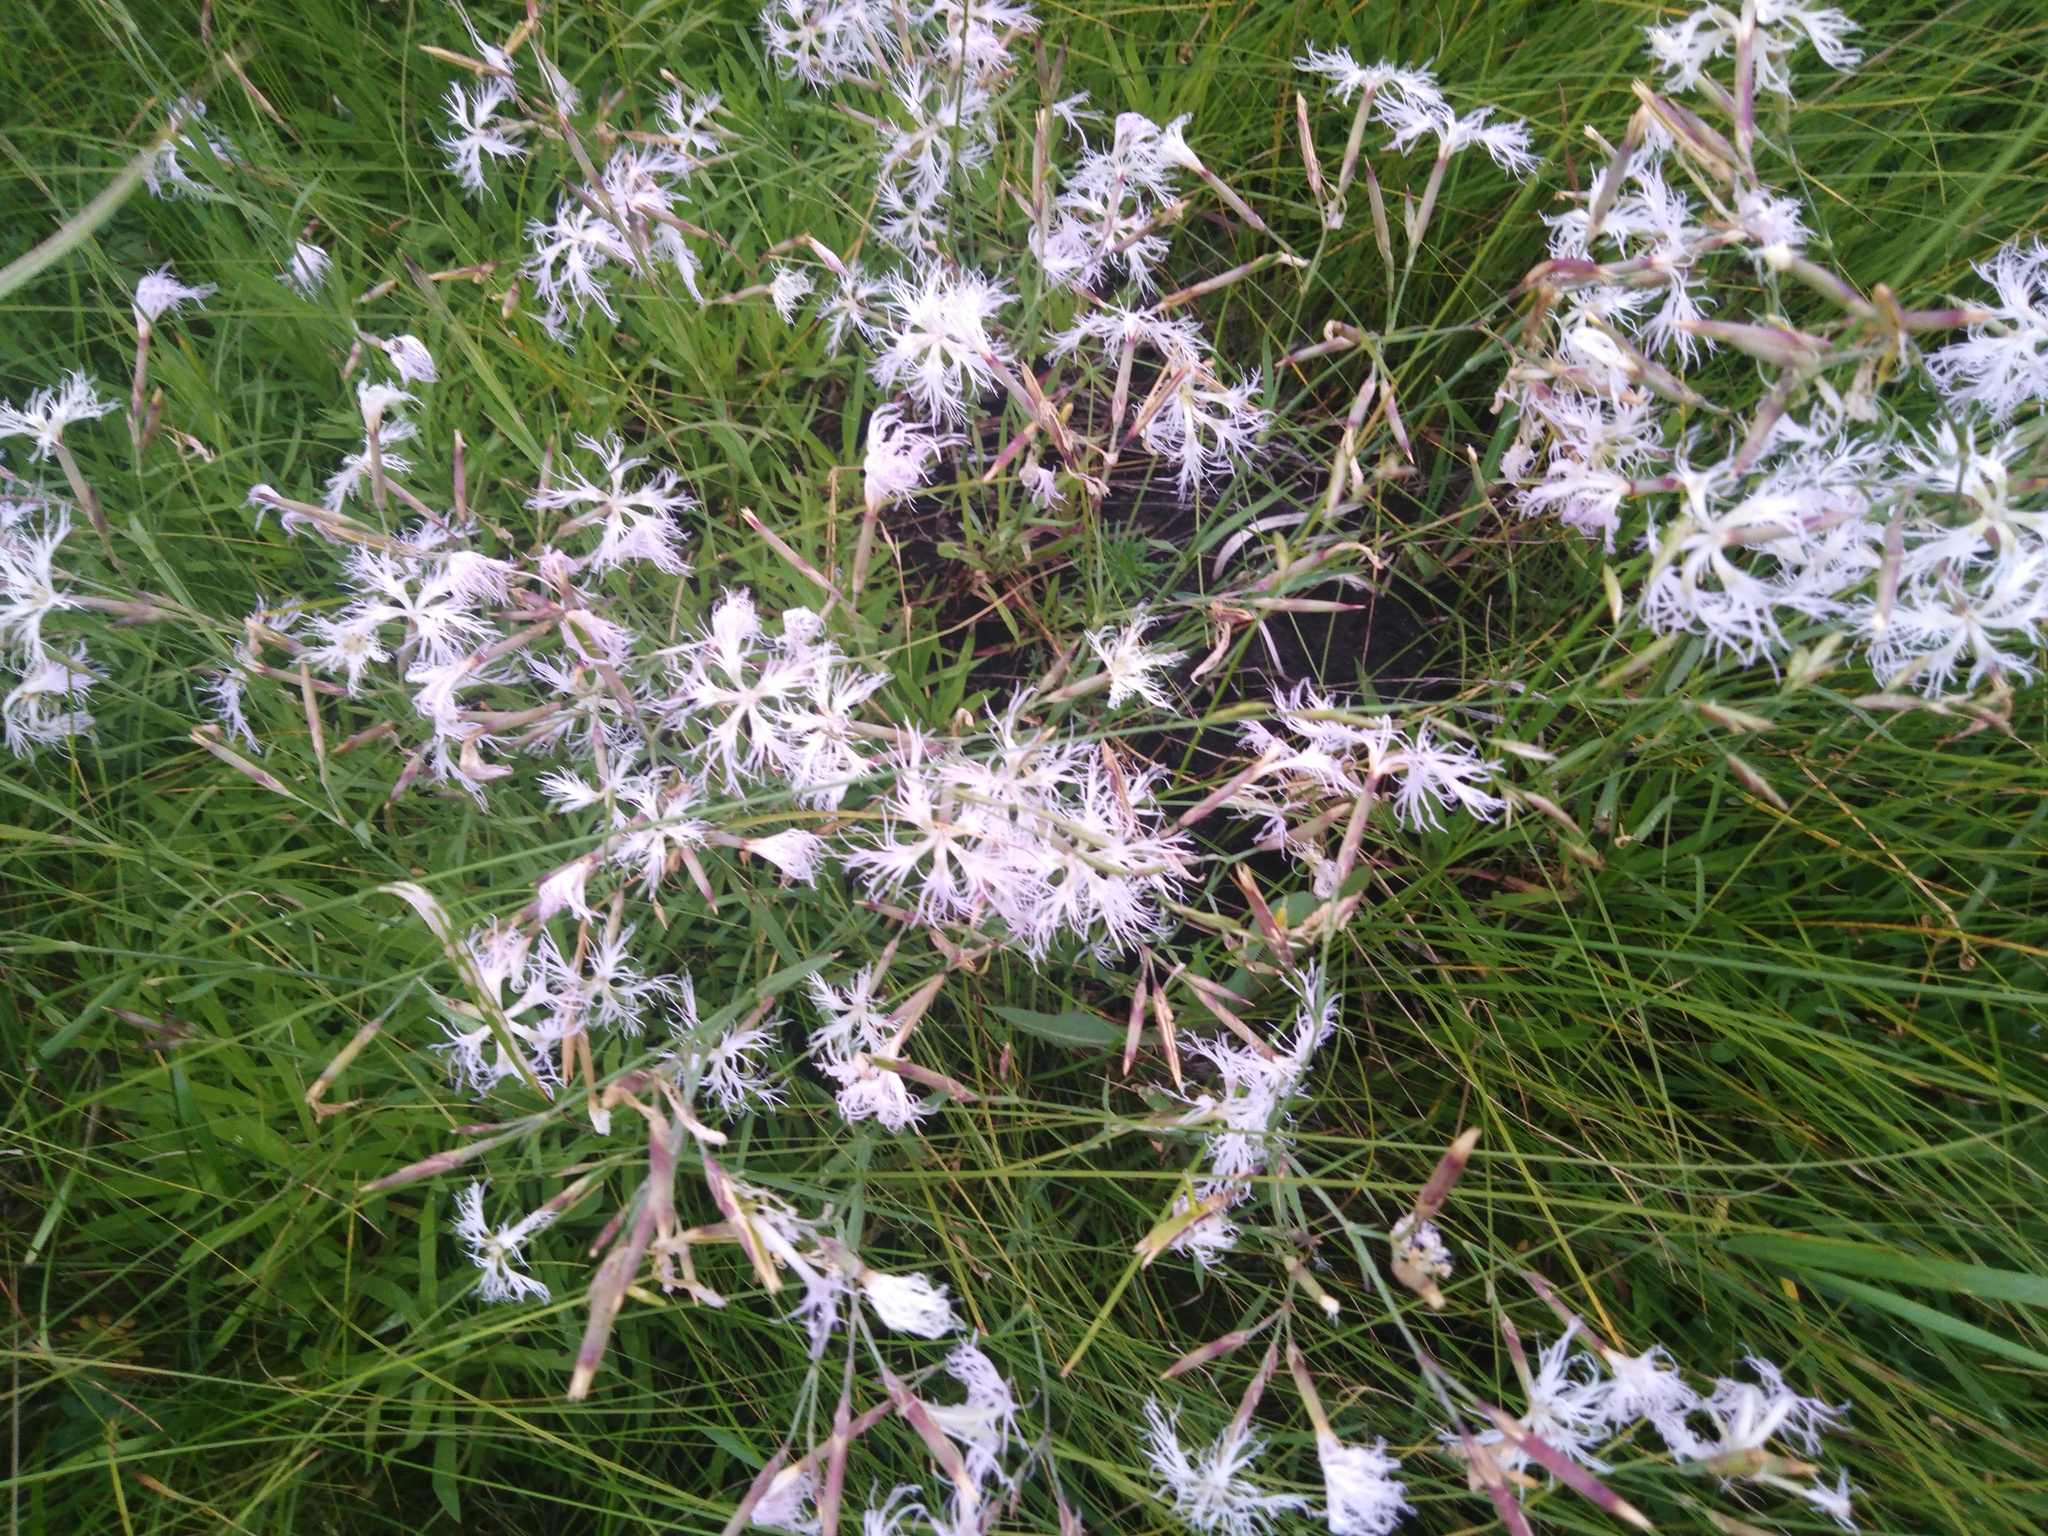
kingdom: Plantae
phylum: Tracheophyta
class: Magnoliopsida
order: Caryophyllales
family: Caryophyllaceae
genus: Dianthus
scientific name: Dianthus superbus
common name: Fringed pink
